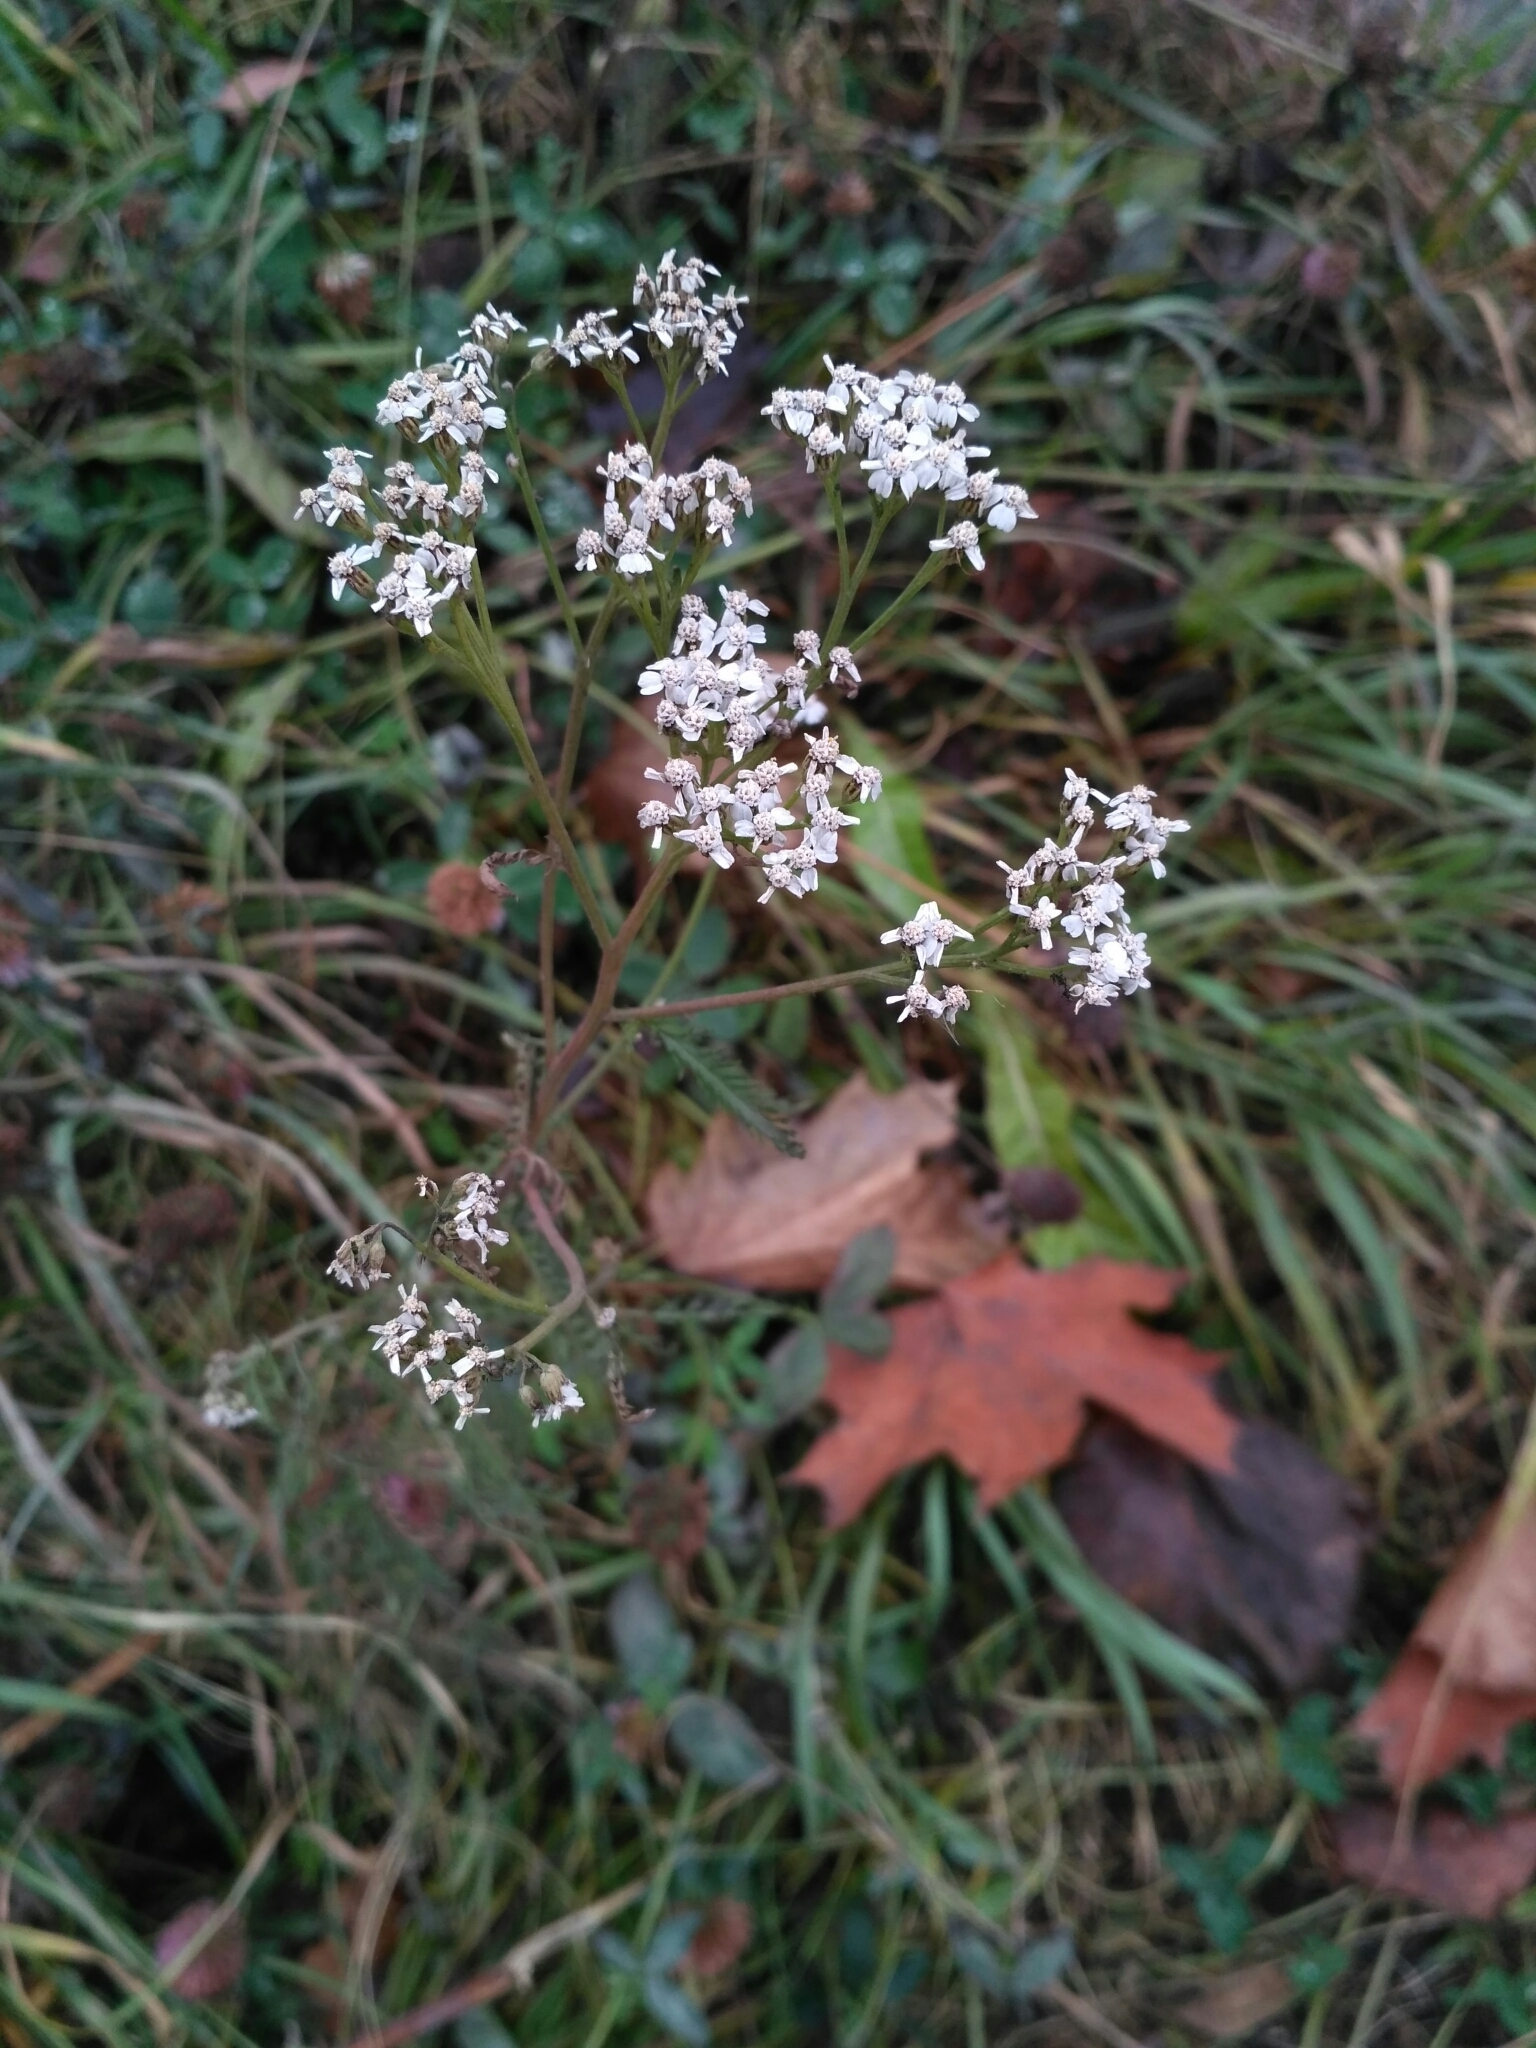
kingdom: Plantae
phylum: Tracheophyta
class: Magnoliopsida
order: Asterales
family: Asteraceae
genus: Achillea
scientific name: Achillea millefolium
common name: Yarrow
